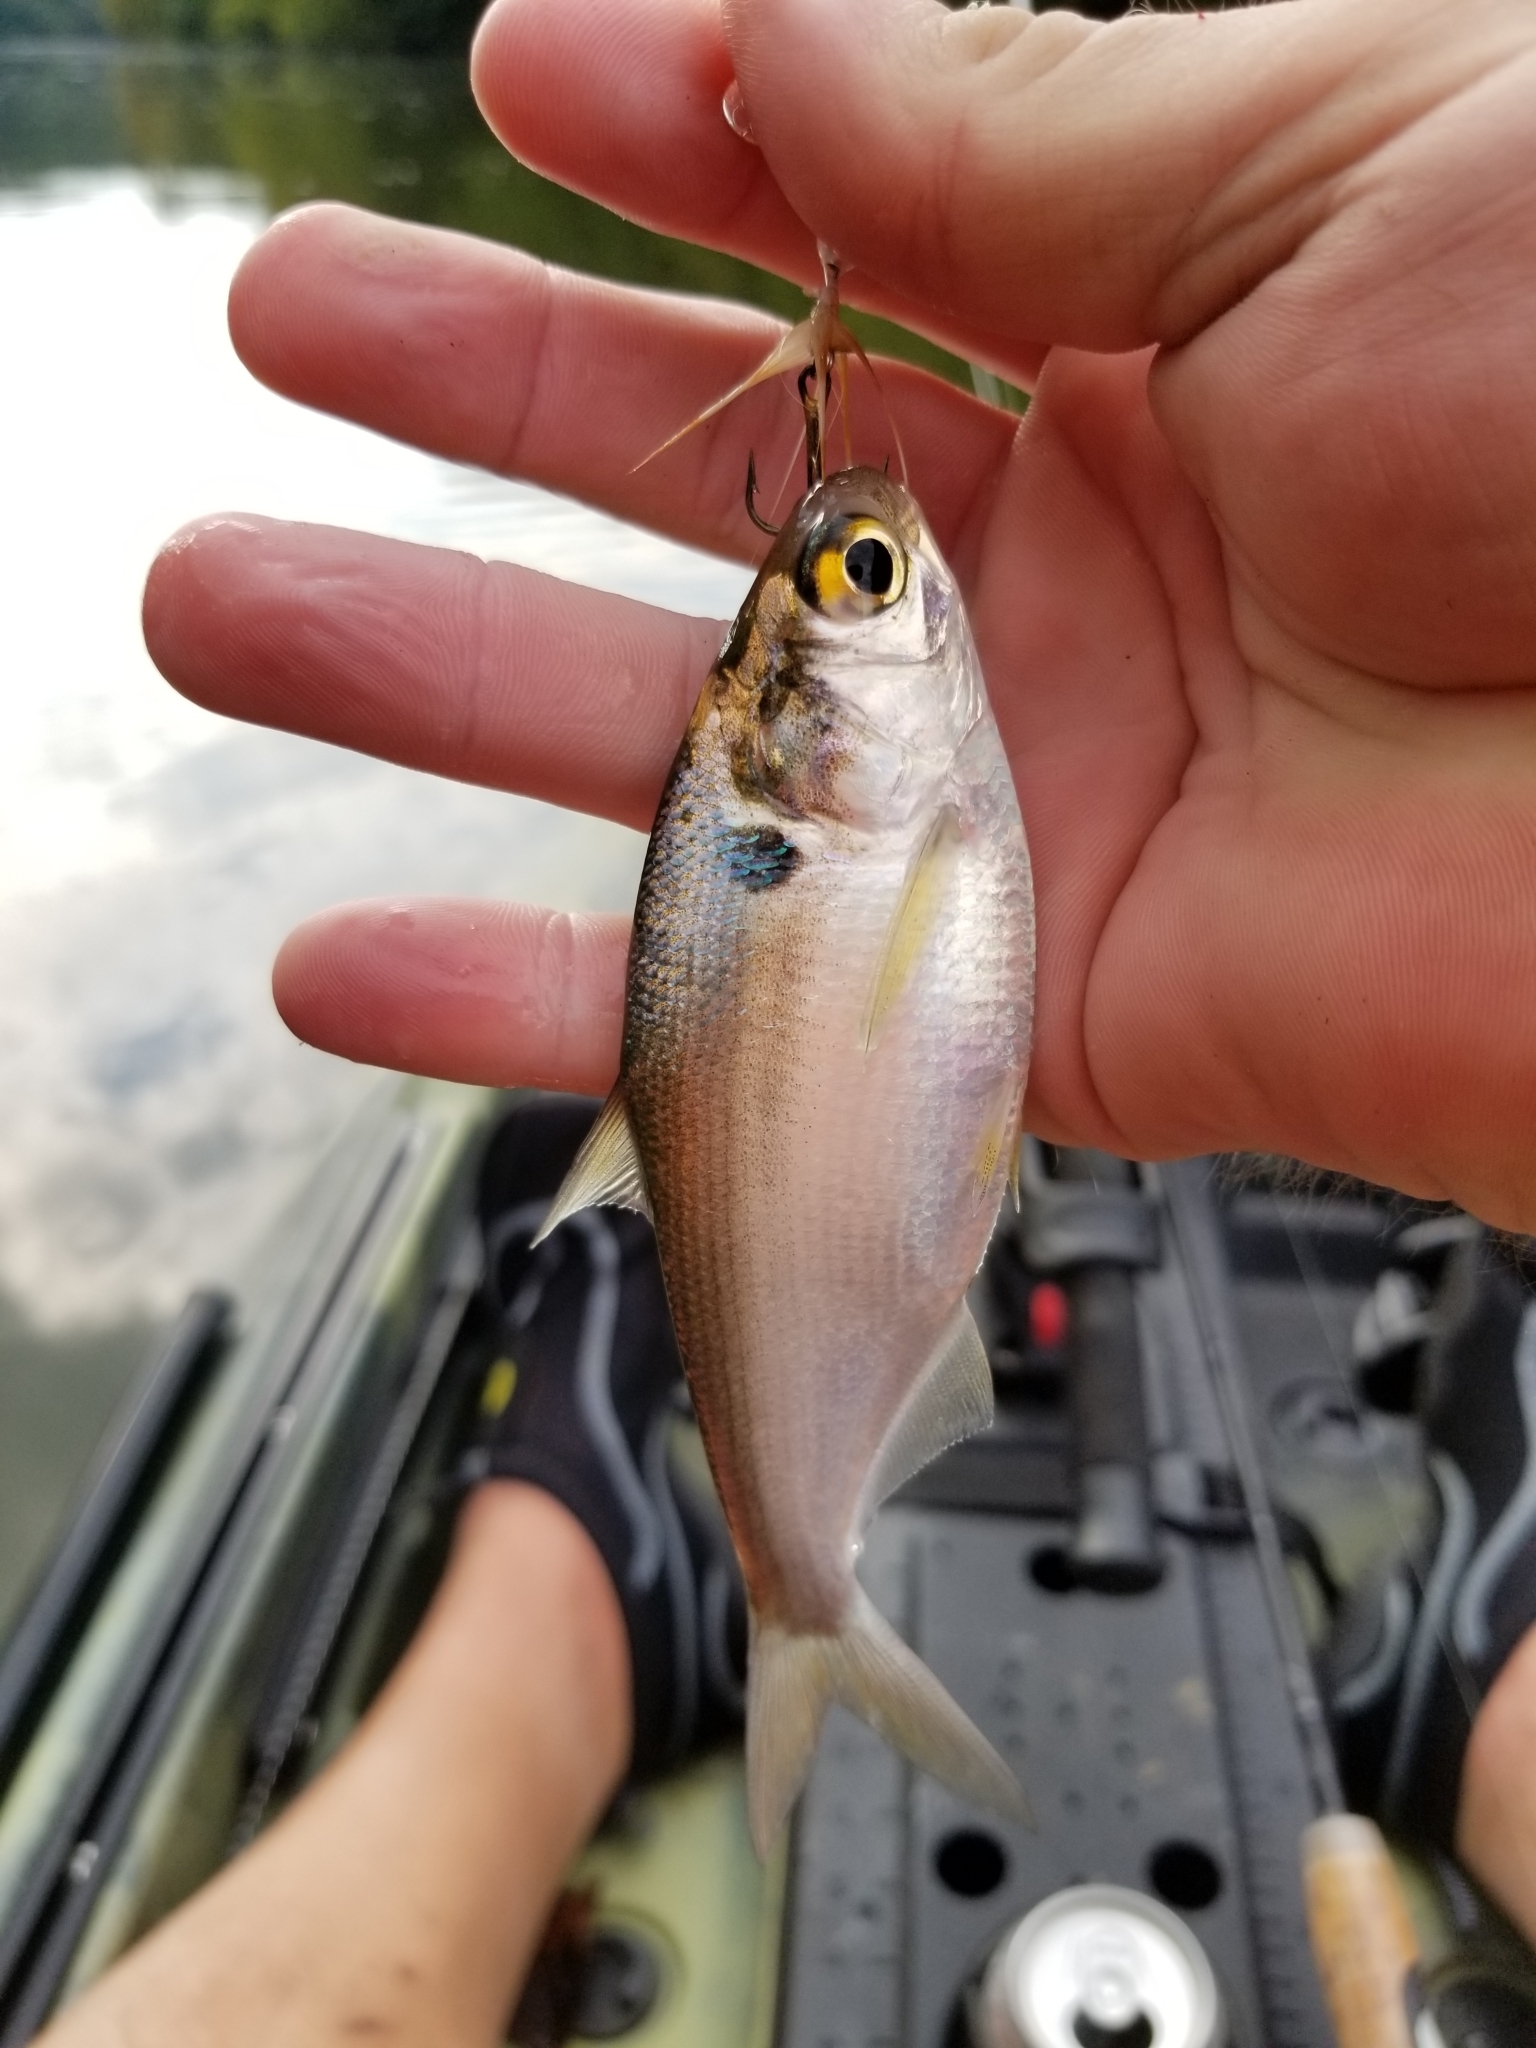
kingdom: Animalia
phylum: Chordata
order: Clupeiformes
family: Clupeidae
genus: Dorosoma
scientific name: Dorosoma cepedianum
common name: Gizzard shad
